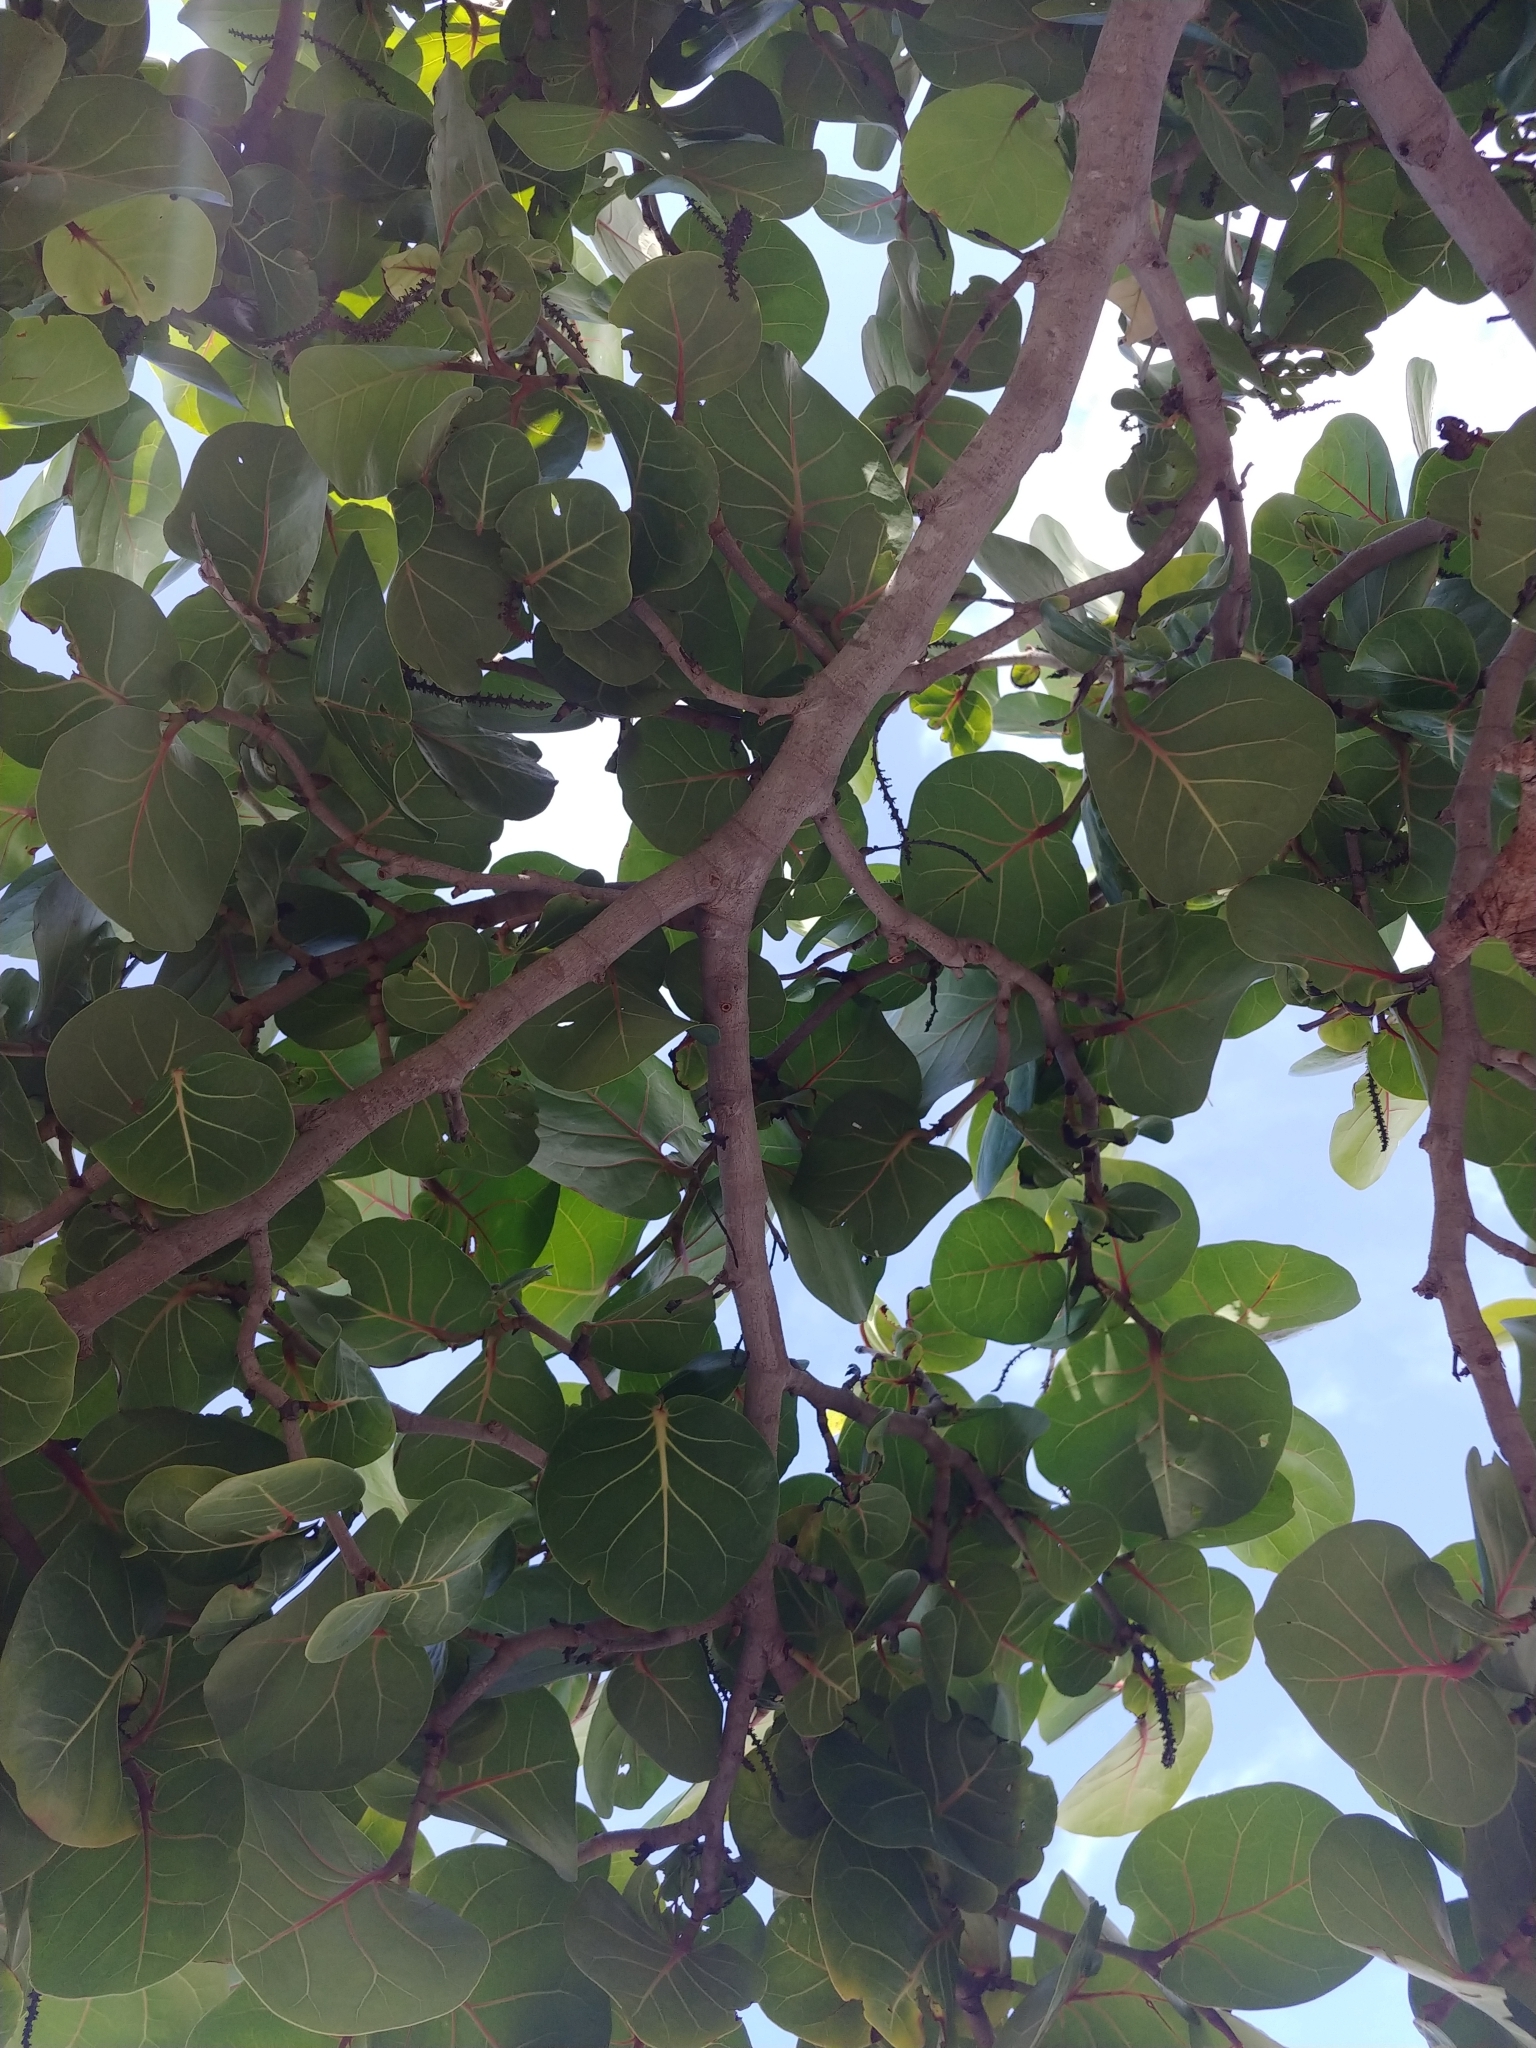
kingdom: Plantae
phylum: Tracheophyta
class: Magnoliopsida
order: Caryophyllales
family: Polygonaceae
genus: Coccoloba
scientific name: Coccoloba uvifera
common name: Seagrape
